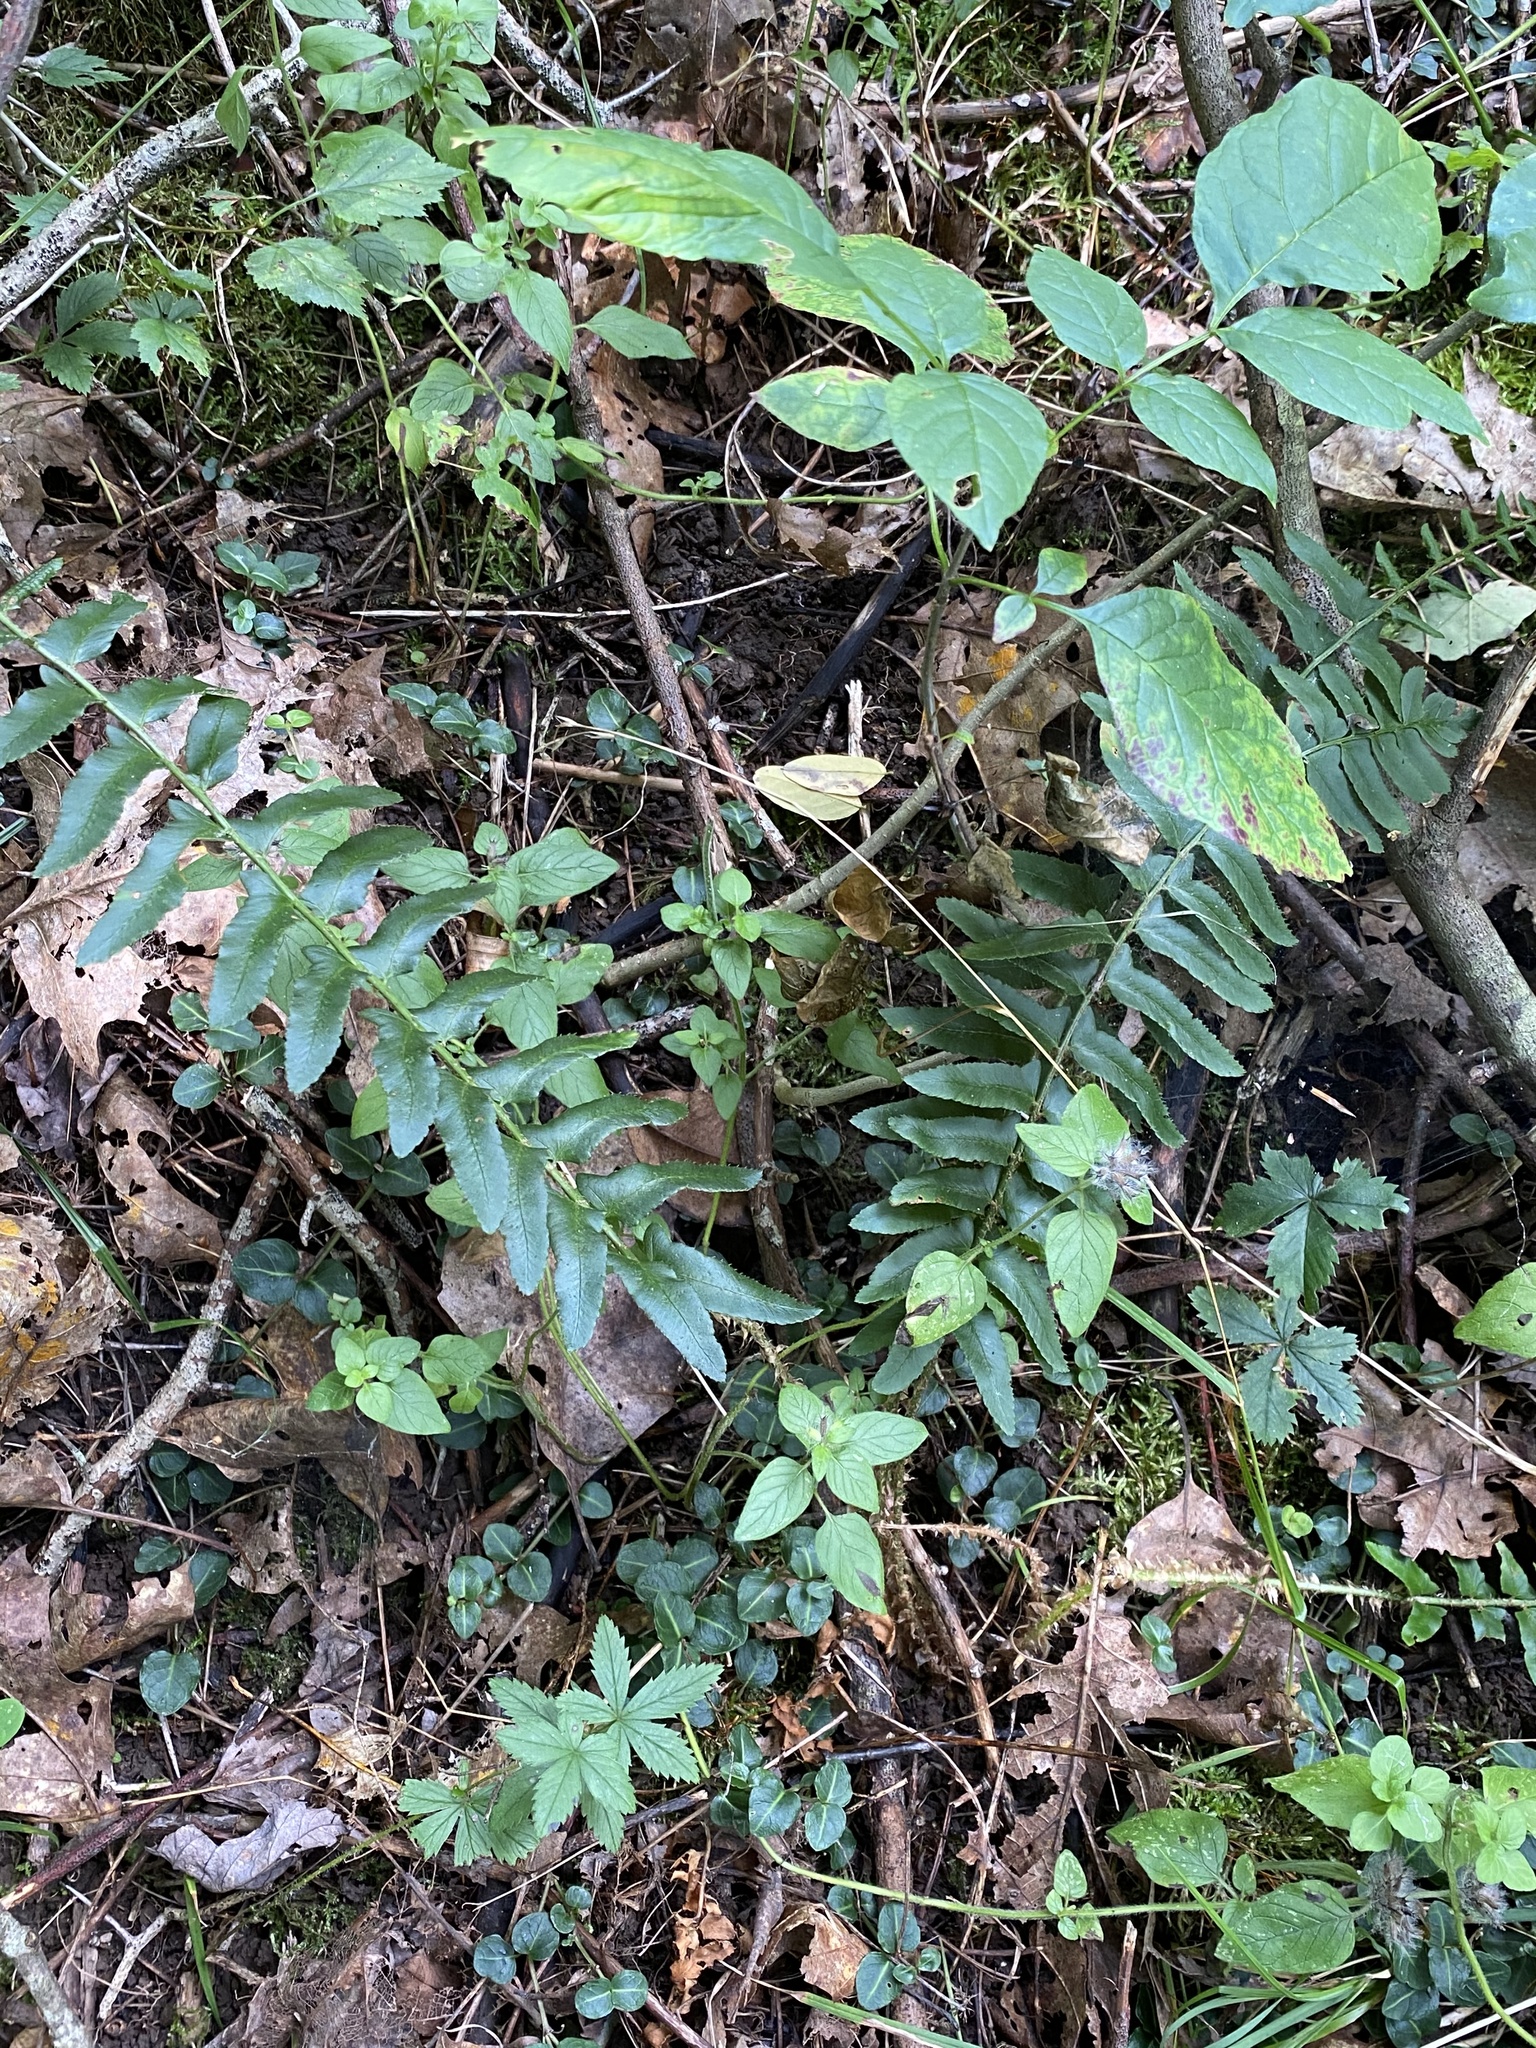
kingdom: Plantae
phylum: Tracheophyta
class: Polypodiopsida
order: Polypodiales
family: Dryopteridaceae
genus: Polystichum
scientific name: Polystichum acrostichoides
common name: Christmas fern
